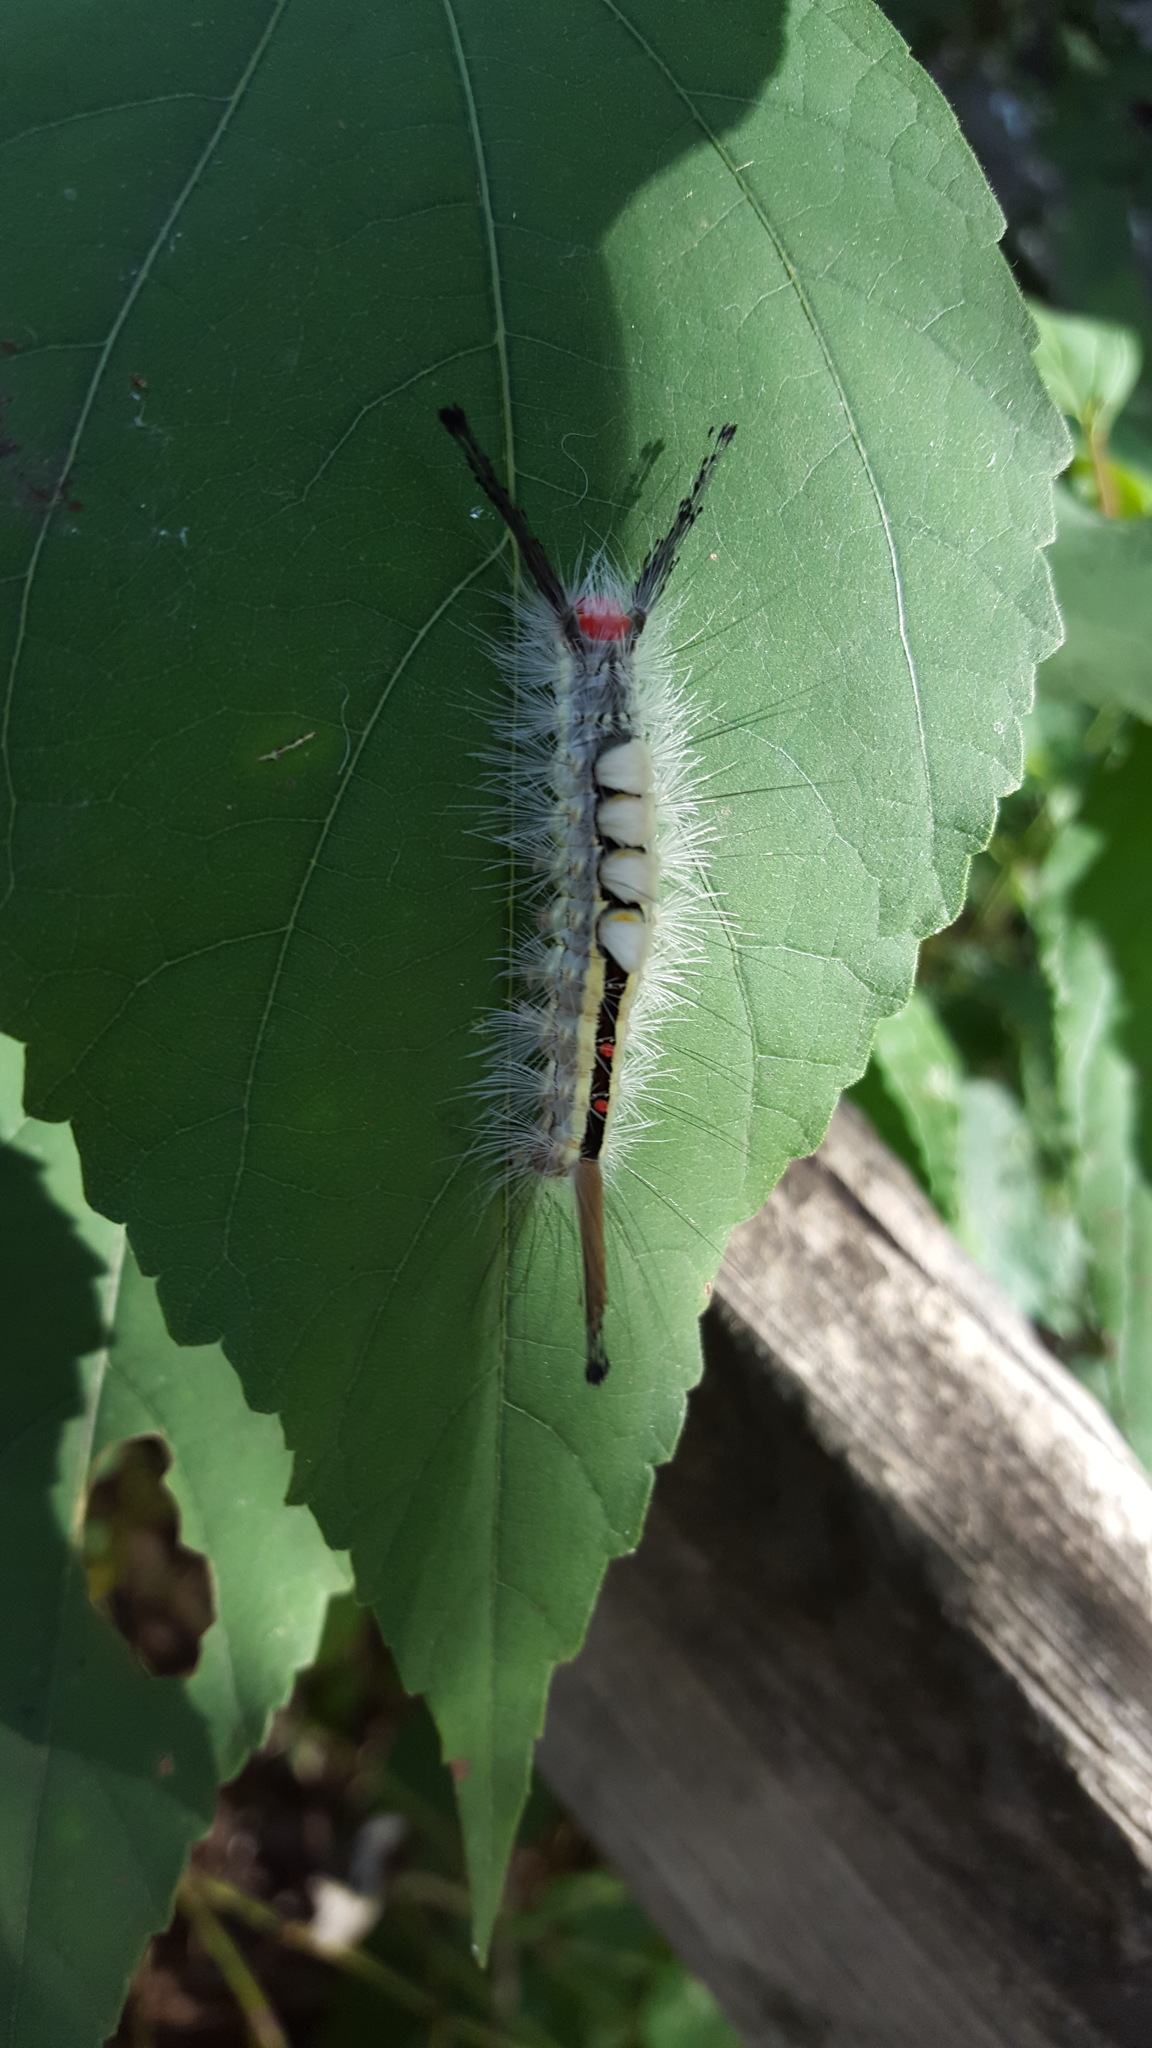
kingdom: Animalia
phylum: Arthropoda
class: Insecta
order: Lepidoptera
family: Erebidae
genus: Orgyia
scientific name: Orgyia leucostigma
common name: White-marked tussock moth
